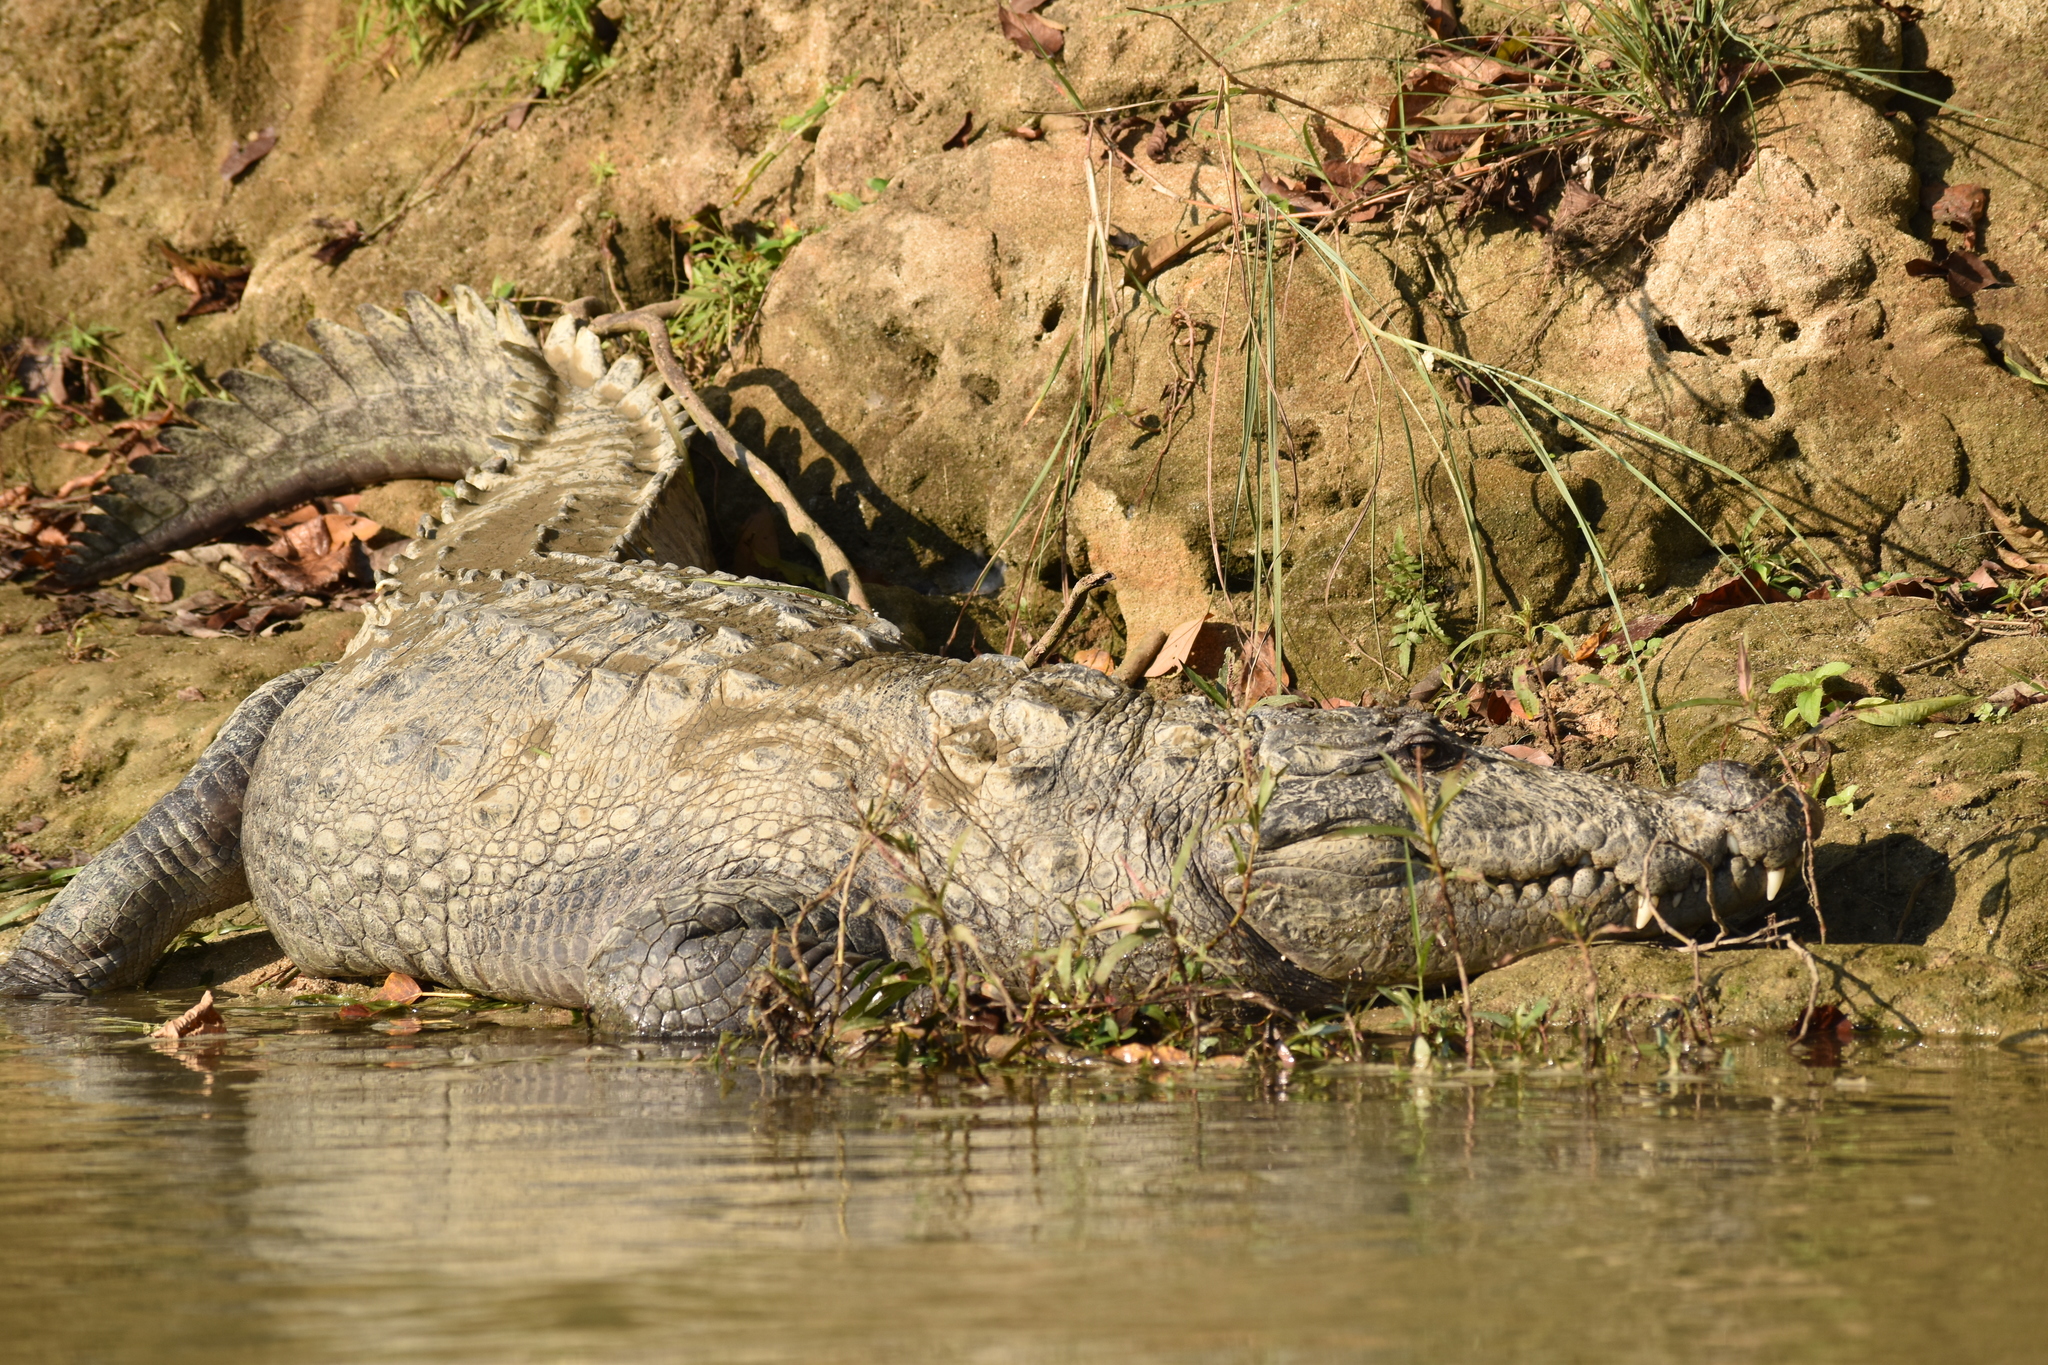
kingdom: Animalia
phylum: Chordata
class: Crocodylia
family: Crocodylidae
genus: Crocodylus
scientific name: Crocodylus palustris
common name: Mugger crocodile
